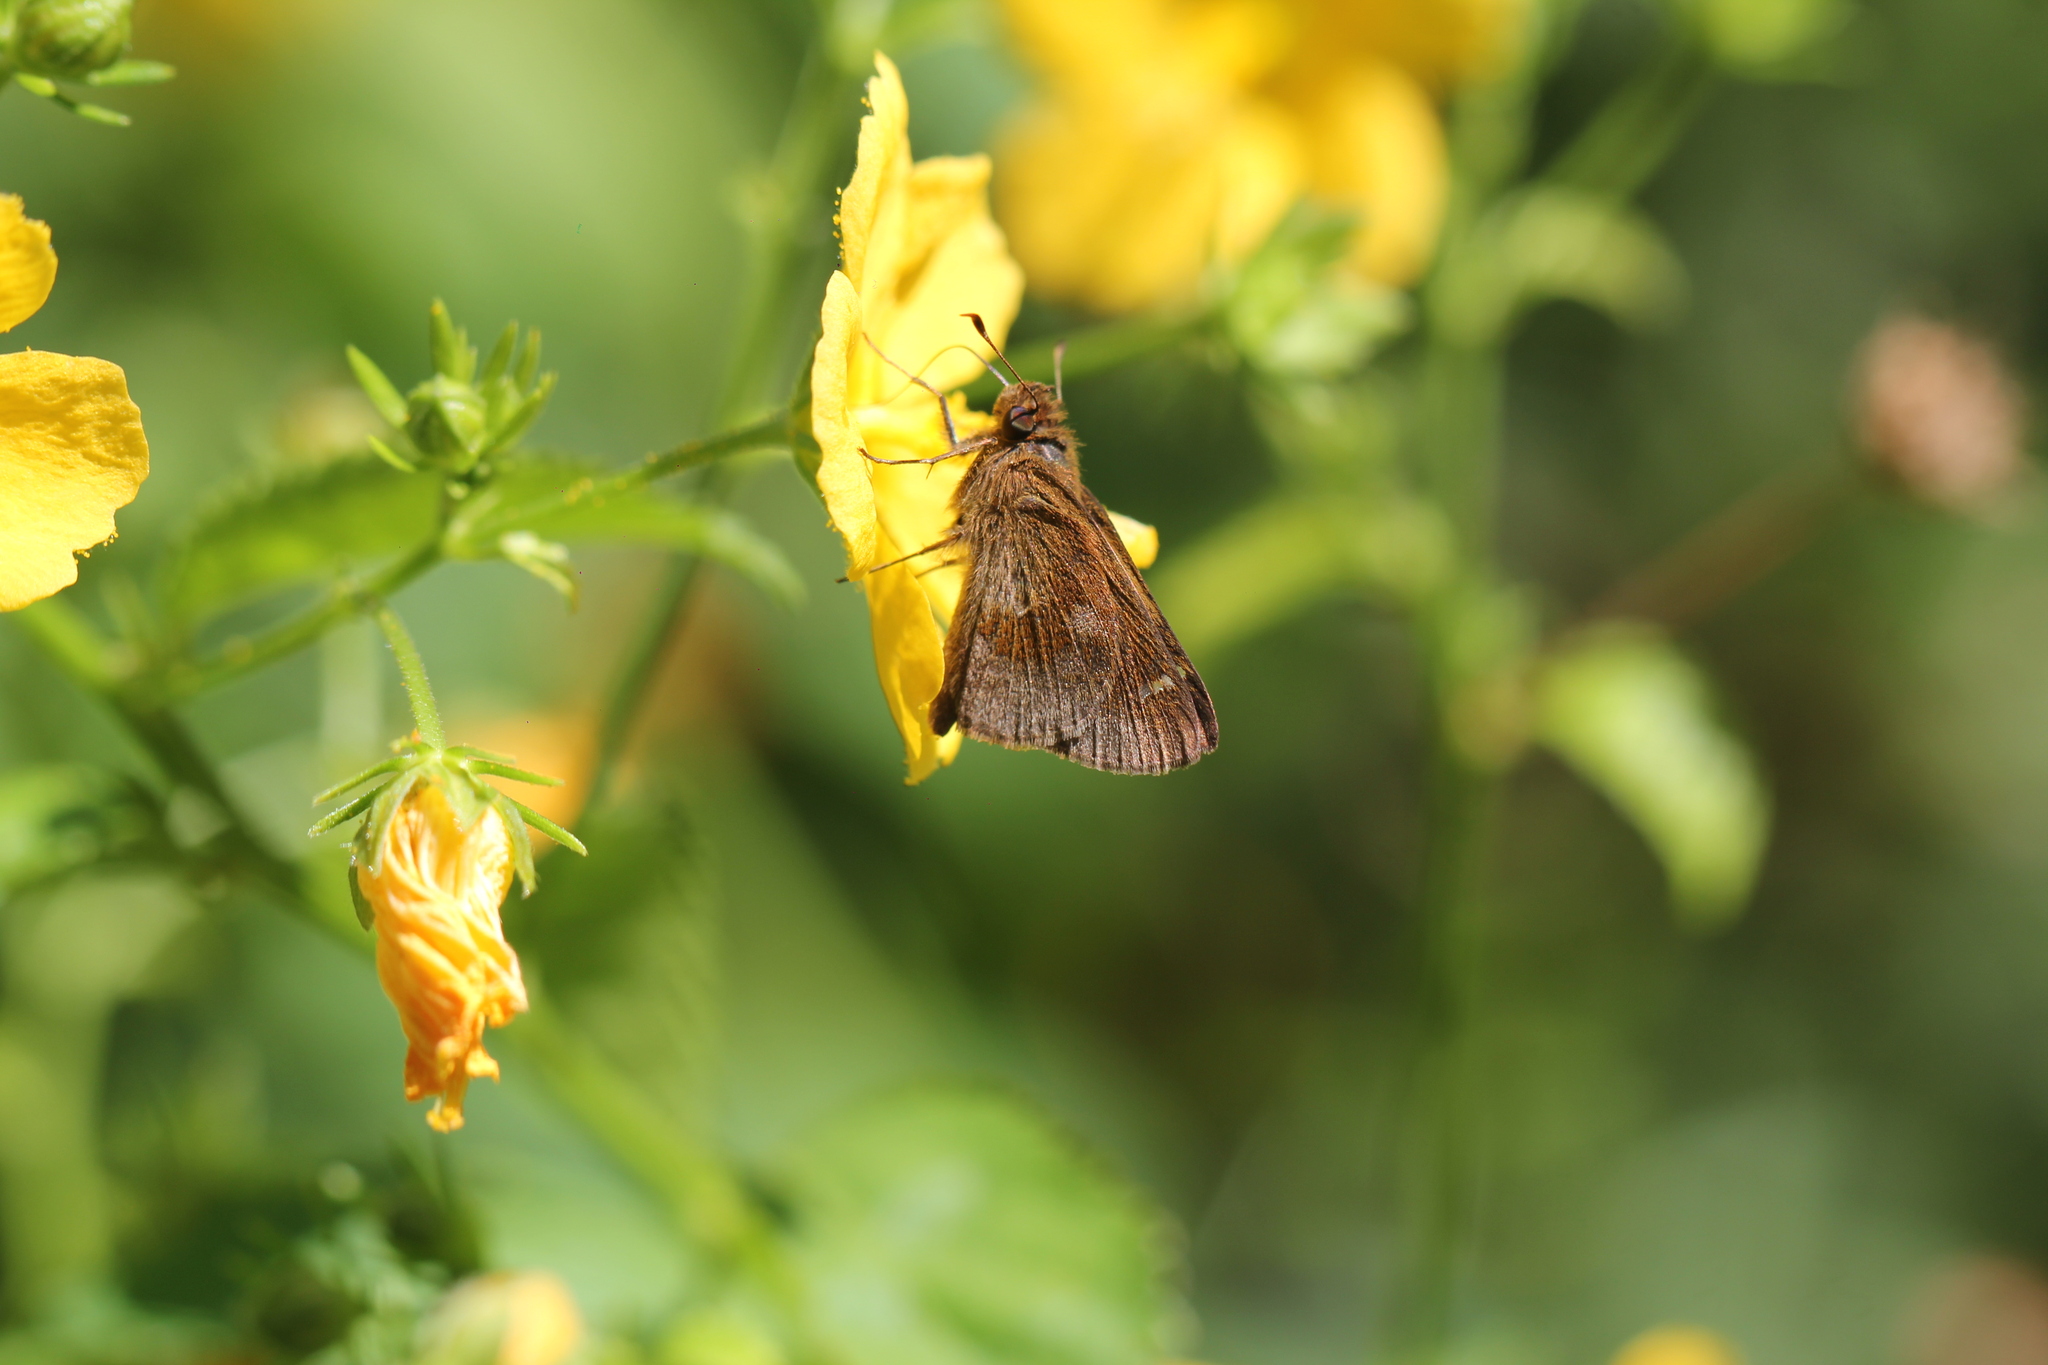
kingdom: Animalia
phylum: Arthropoda
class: Insecta
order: Lepidoptera
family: Hesperiidae
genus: Cymaenes
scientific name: Cymaenes
